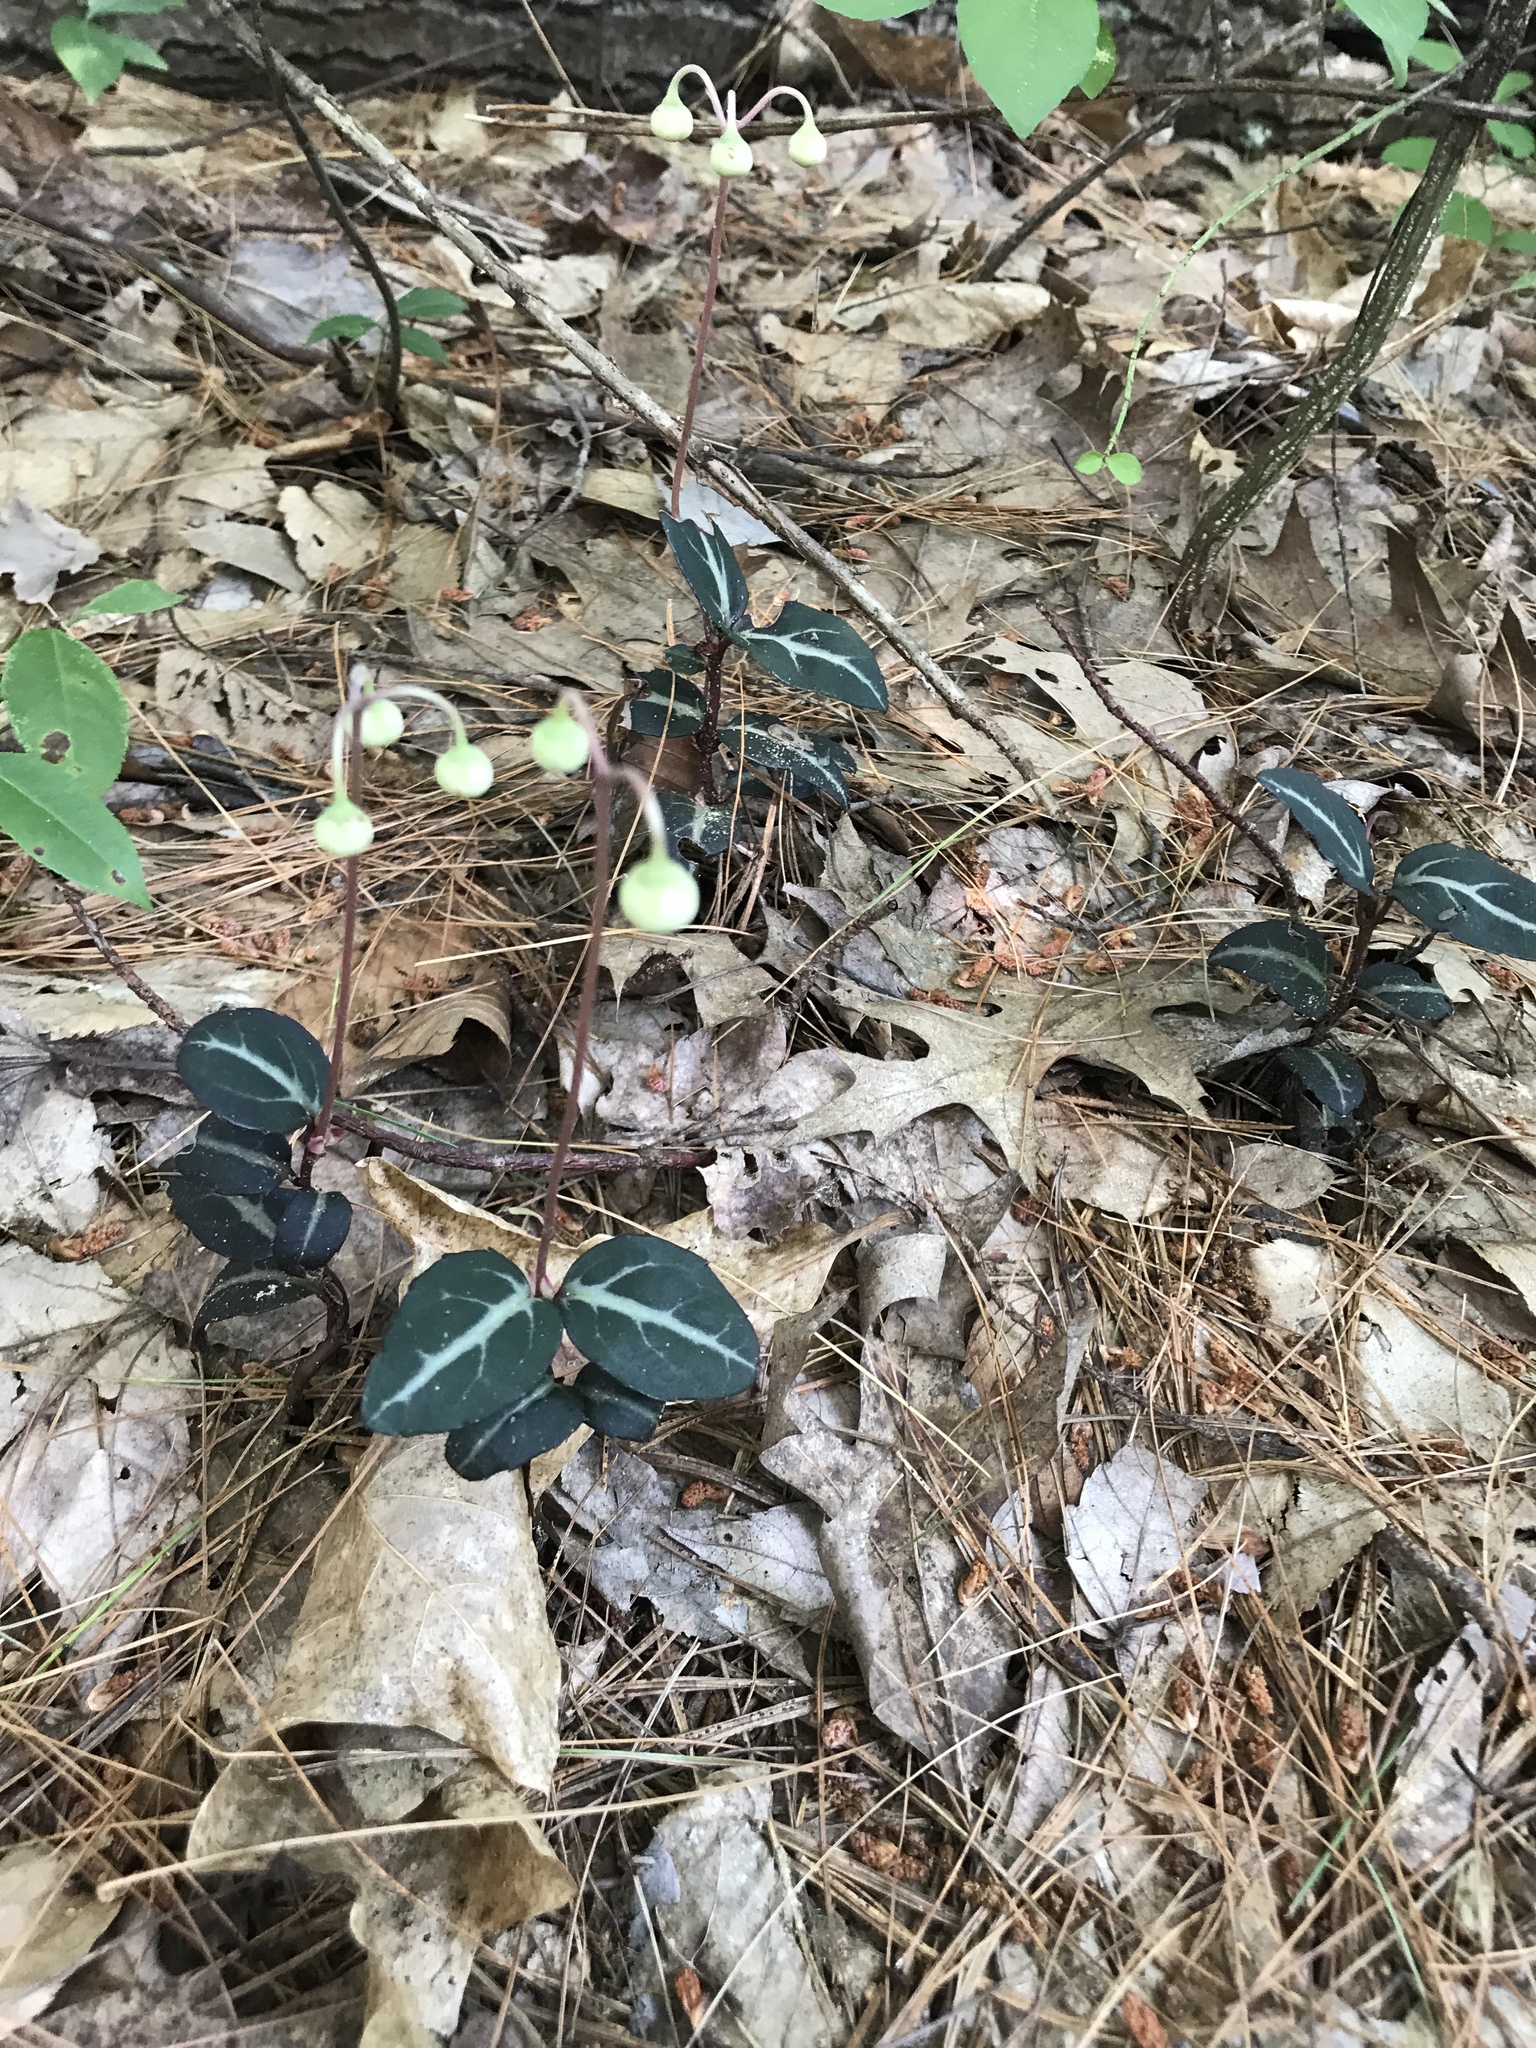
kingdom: Plantae
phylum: Tracheophyta
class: Magnoliopsida
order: Ericales
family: Ericaceae
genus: Chimaphila
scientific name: Chimaphila maculata
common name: Spotted pipsissewa
